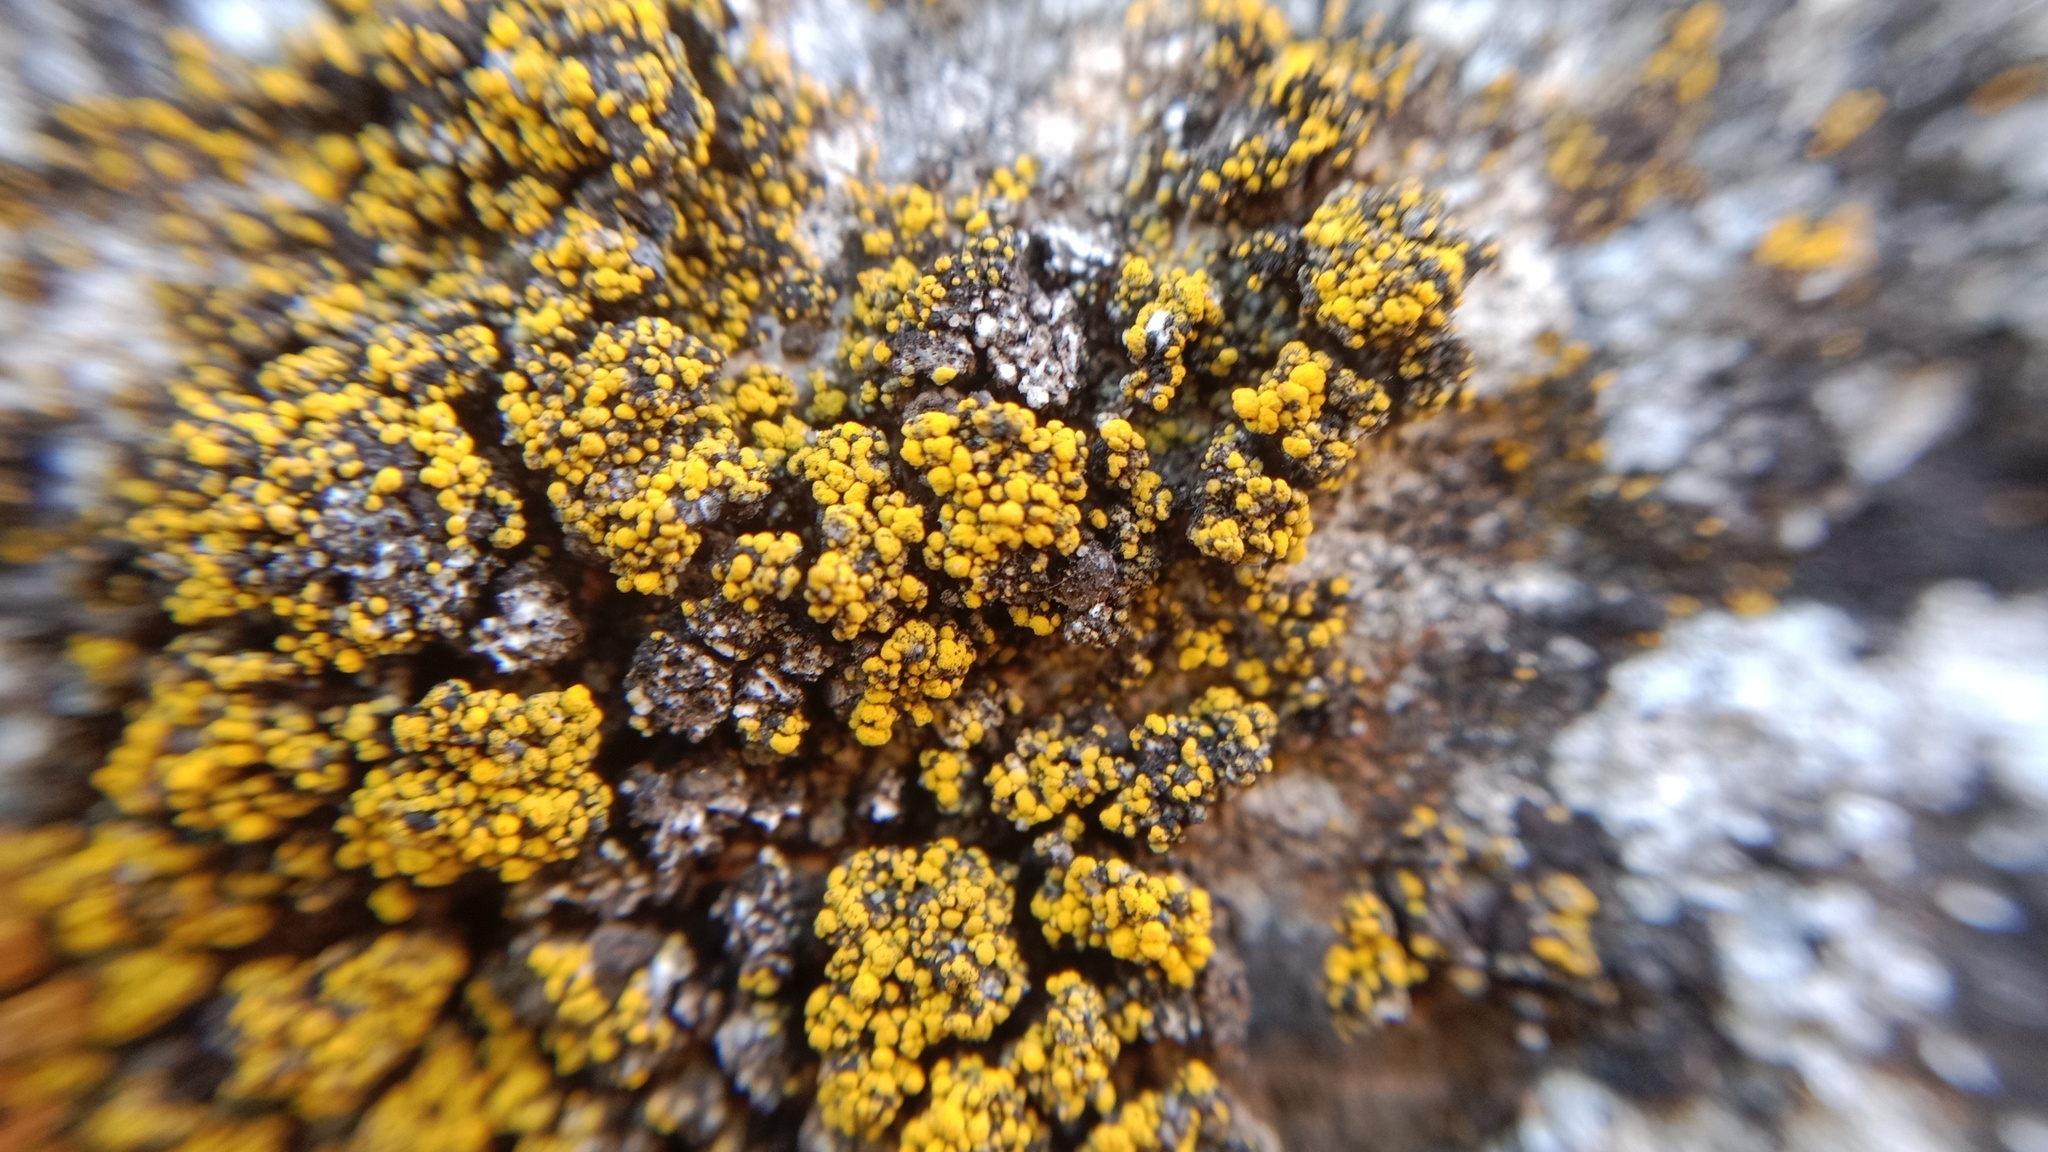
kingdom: Fungi
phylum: Ascomycota
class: Candelariomycetes
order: Candelariales
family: Candelariaceae
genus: Candelariella
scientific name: Candelariella rosulans
